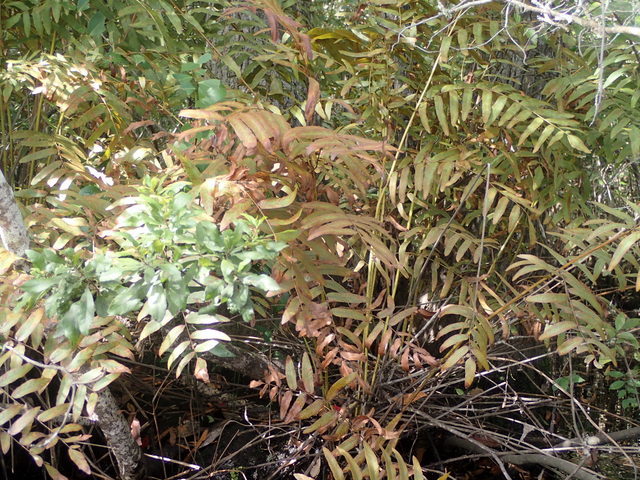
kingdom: Plantae
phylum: Tracheophyta
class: Polypodiopsida
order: Osmundales
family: Osmundaceae
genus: Osmunda
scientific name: Osmunda spectabilis
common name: American royal fern
